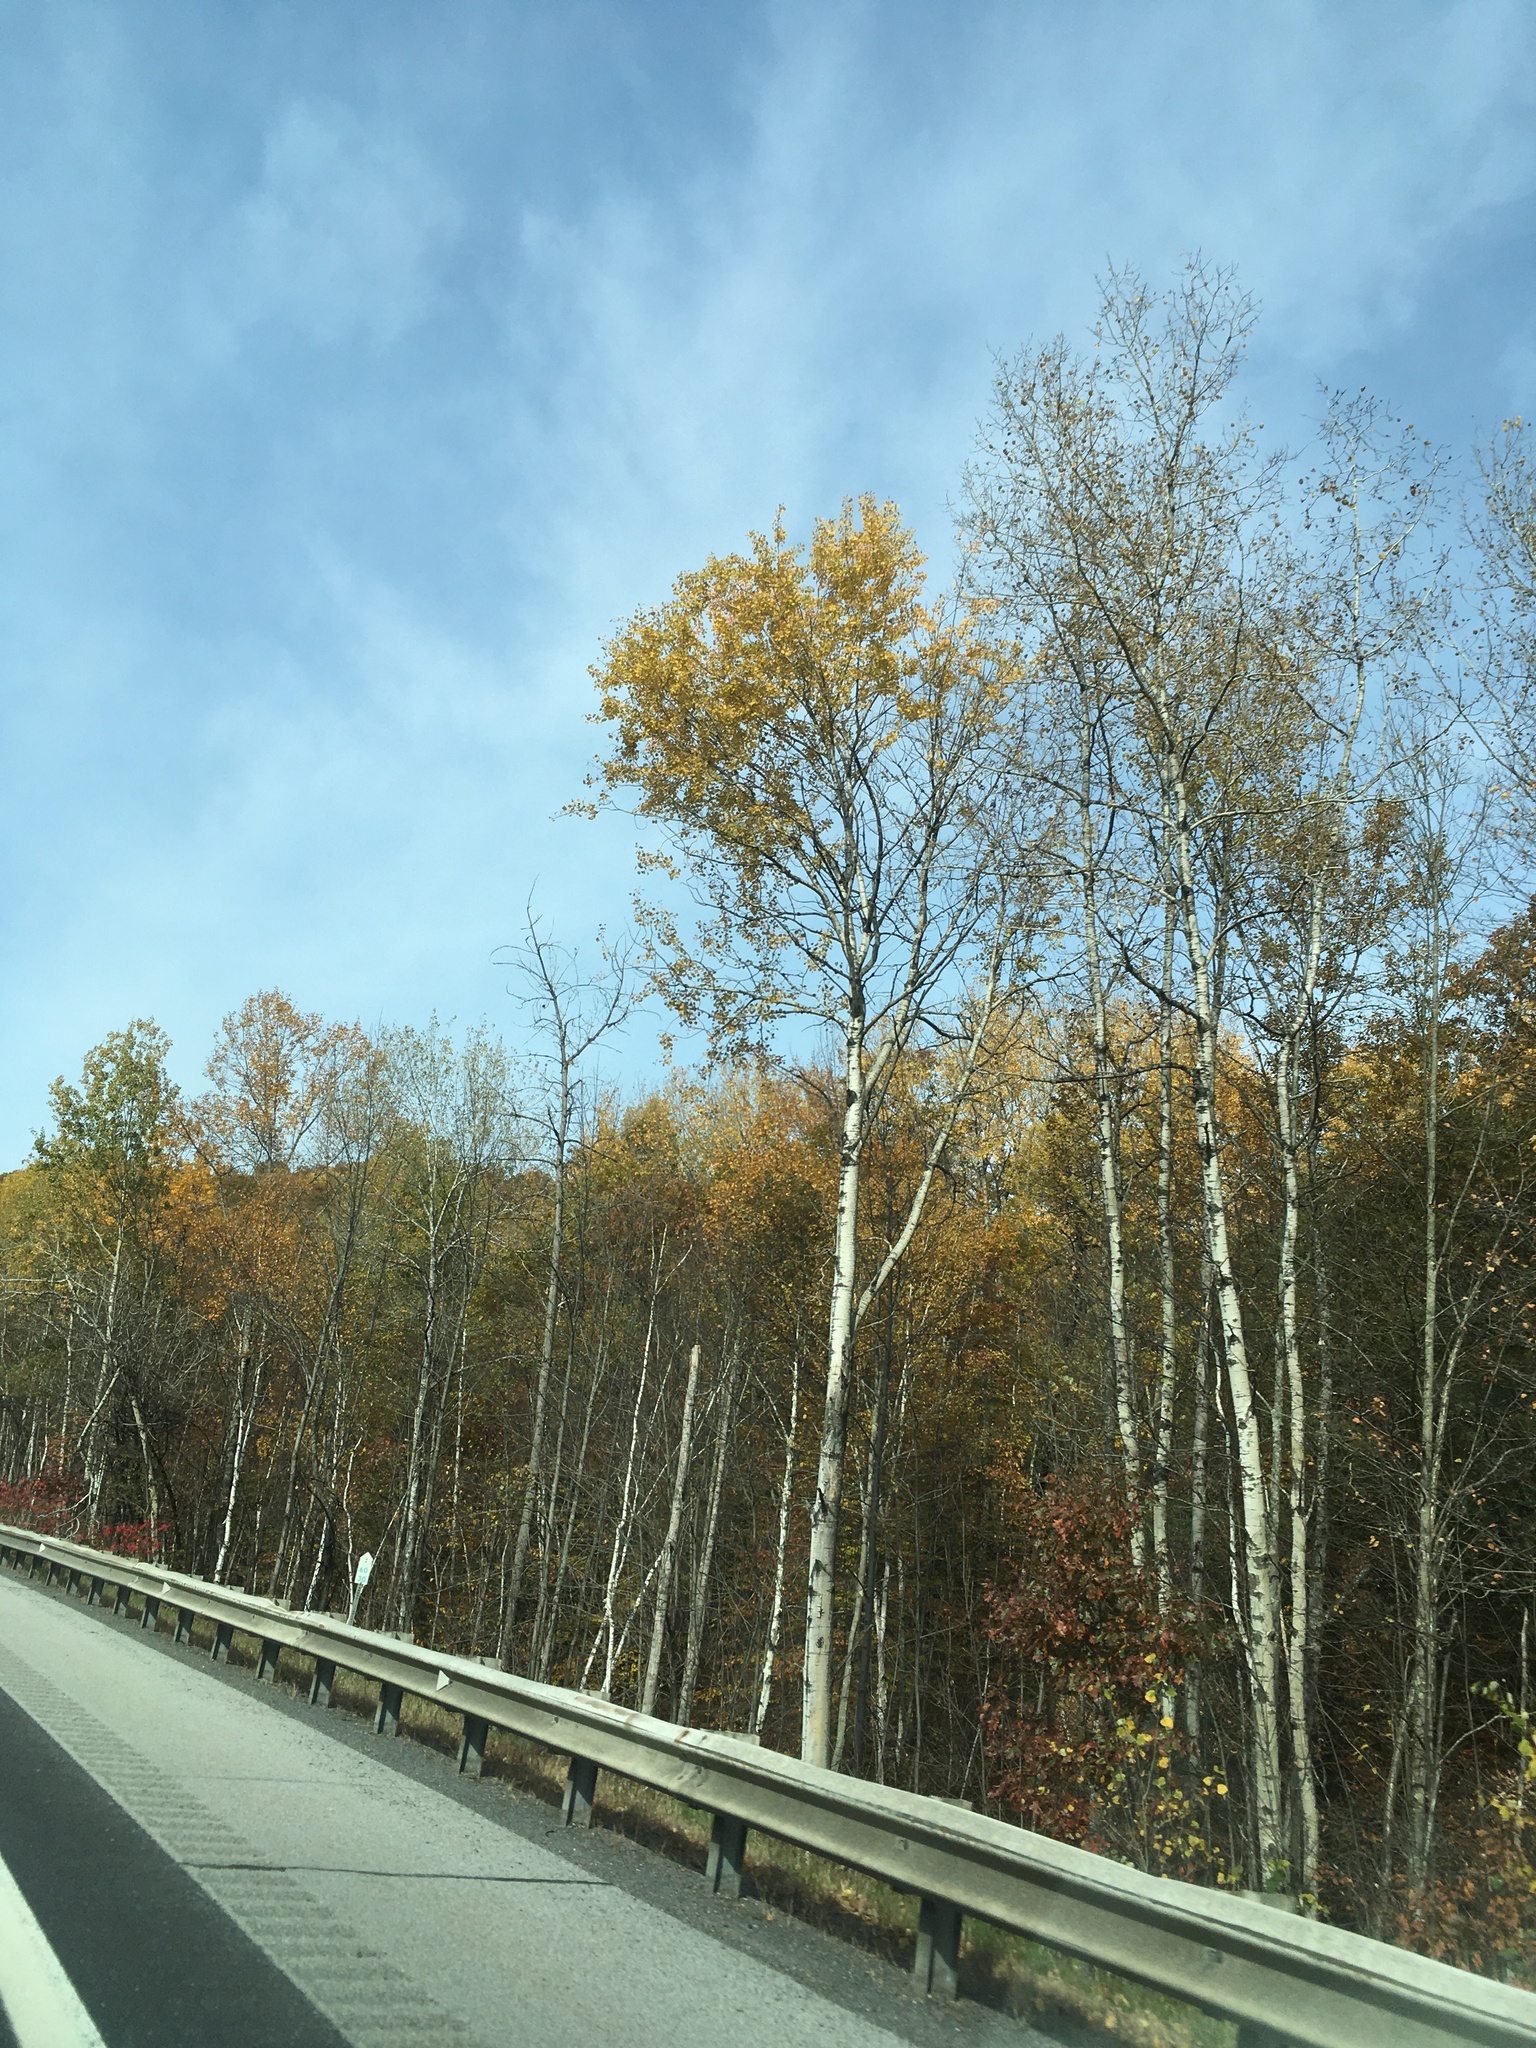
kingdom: Plantae
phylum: Tracheophyta
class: Magnoliopsida
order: Malpighiales
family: Salicaceae
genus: Populus
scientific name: Populus tremuloides
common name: Quaking aspen
